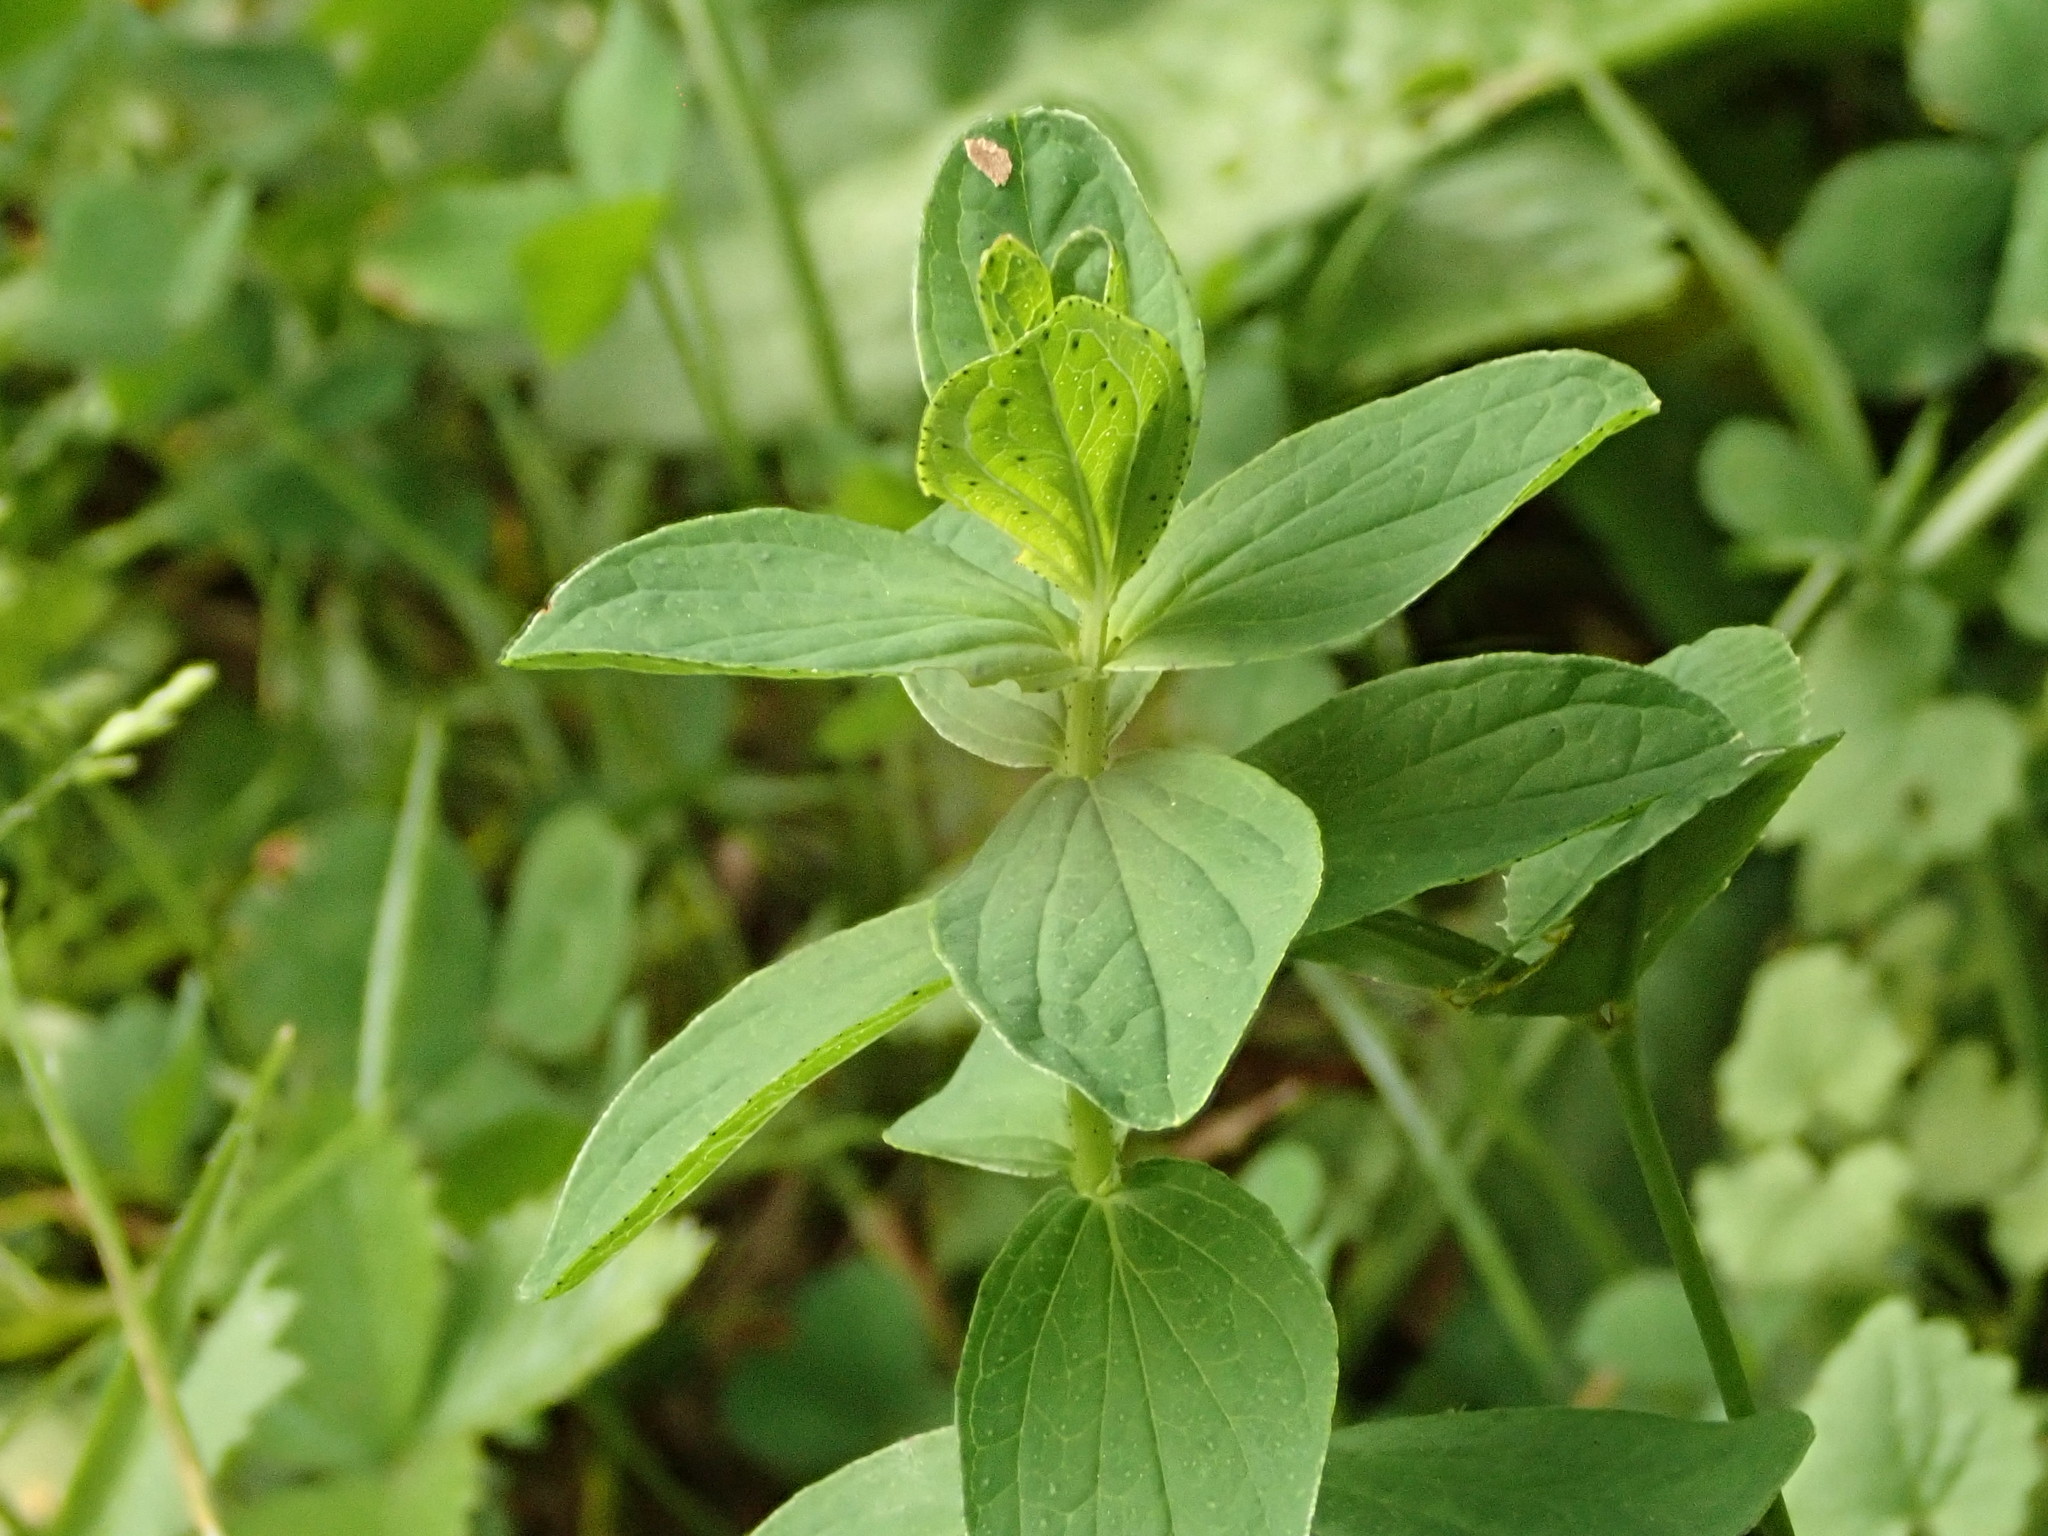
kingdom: Plantae
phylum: Tracheophyta
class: Magnoliopsida
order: Malpighiales
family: Hypericaceae
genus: Hypericum
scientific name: Hypericum maculatum
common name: Imperforate st. john's-wort
